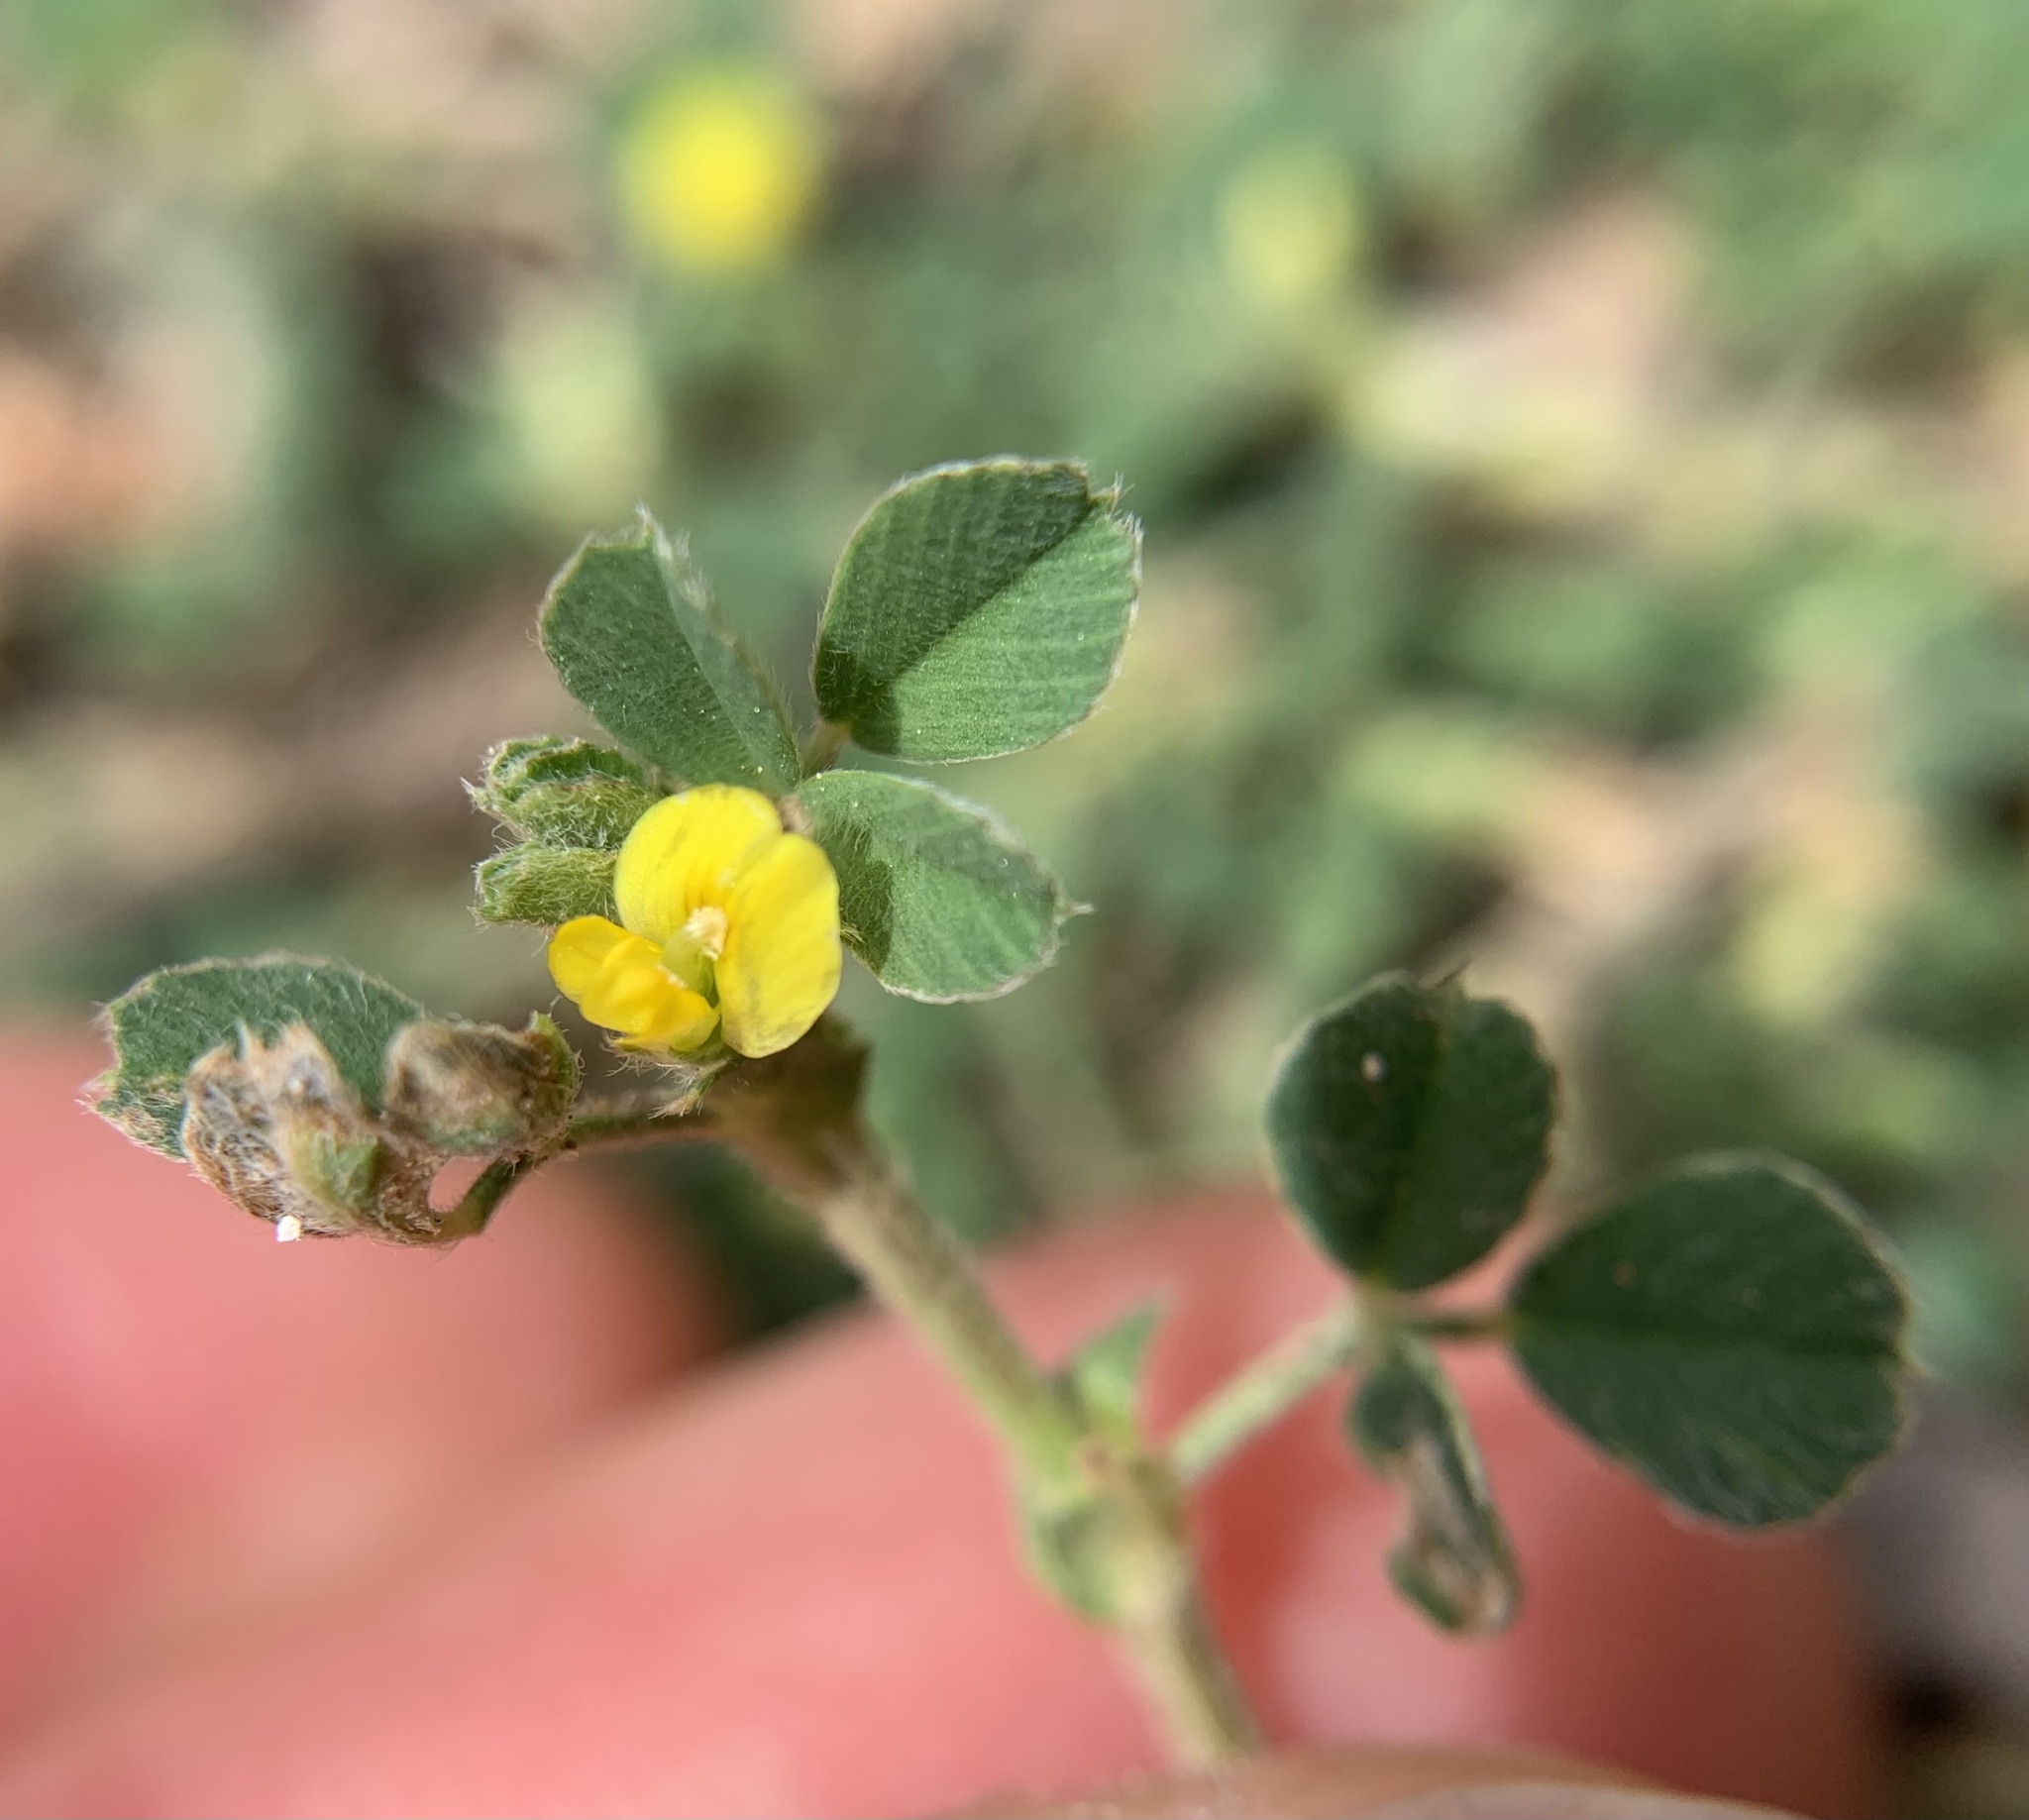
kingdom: Plantae
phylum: Tracheophyta
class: Magnoliopsida
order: Fabales
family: Fabaceae
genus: Medicago
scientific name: Medicago minima
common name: Little bur-clover
